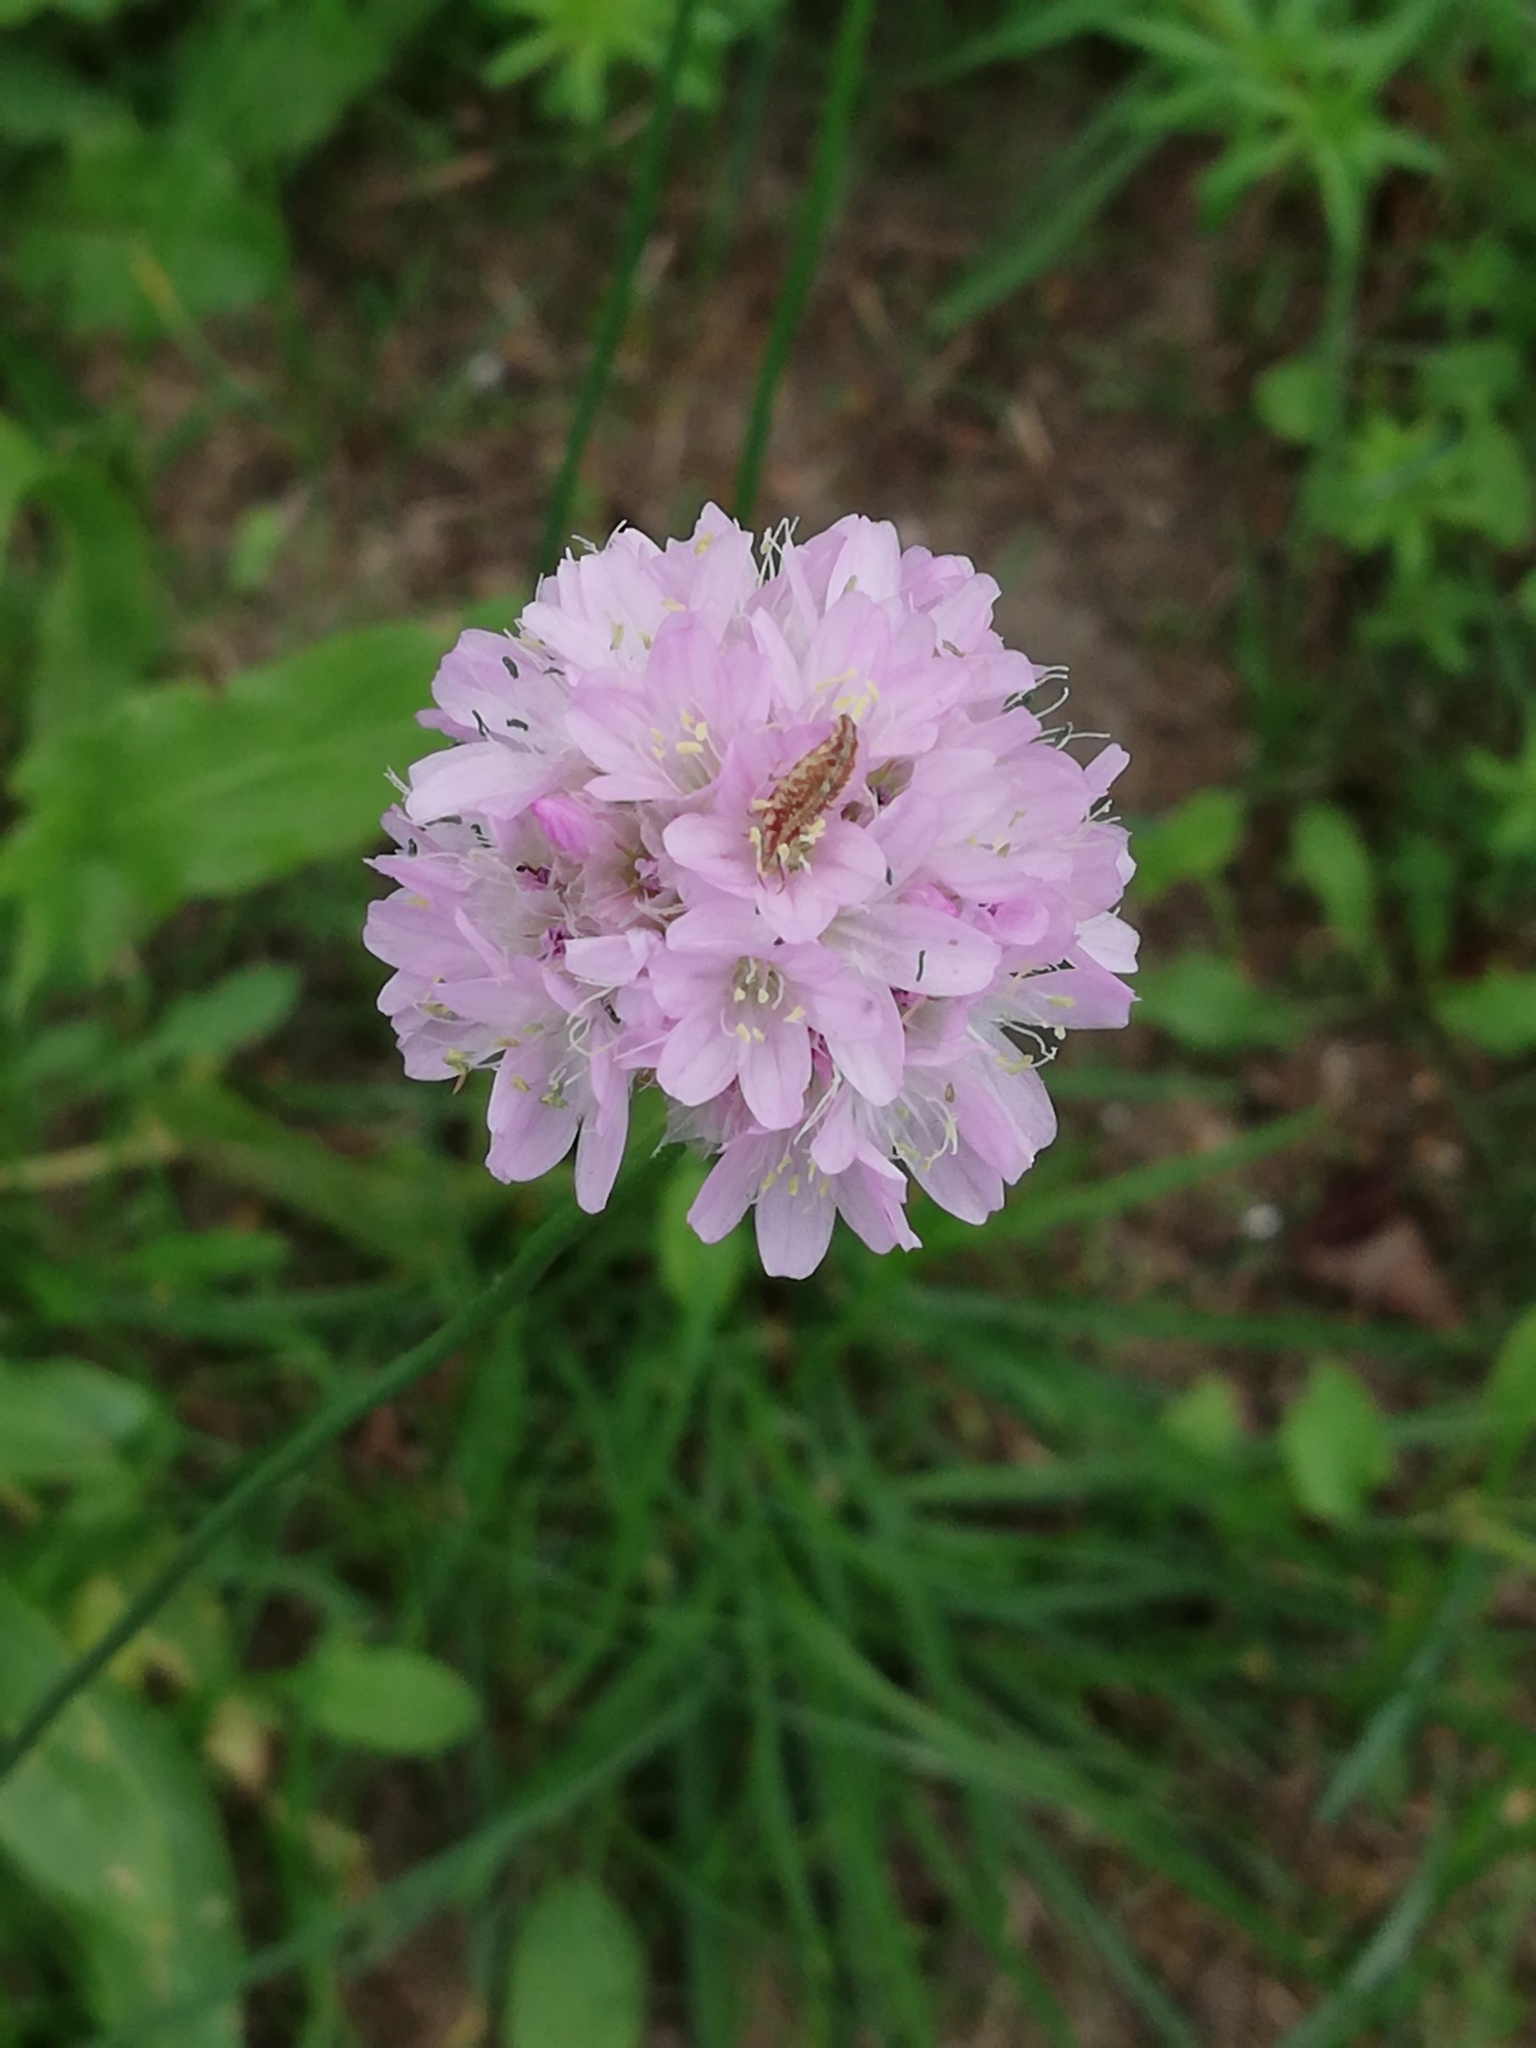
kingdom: Plantae
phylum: Tracheophyta
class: Magnoliopsida
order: Caryophyllales
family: Plumbaginaceae
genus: Armeria
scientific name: Armeria maritima
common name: Thrift
